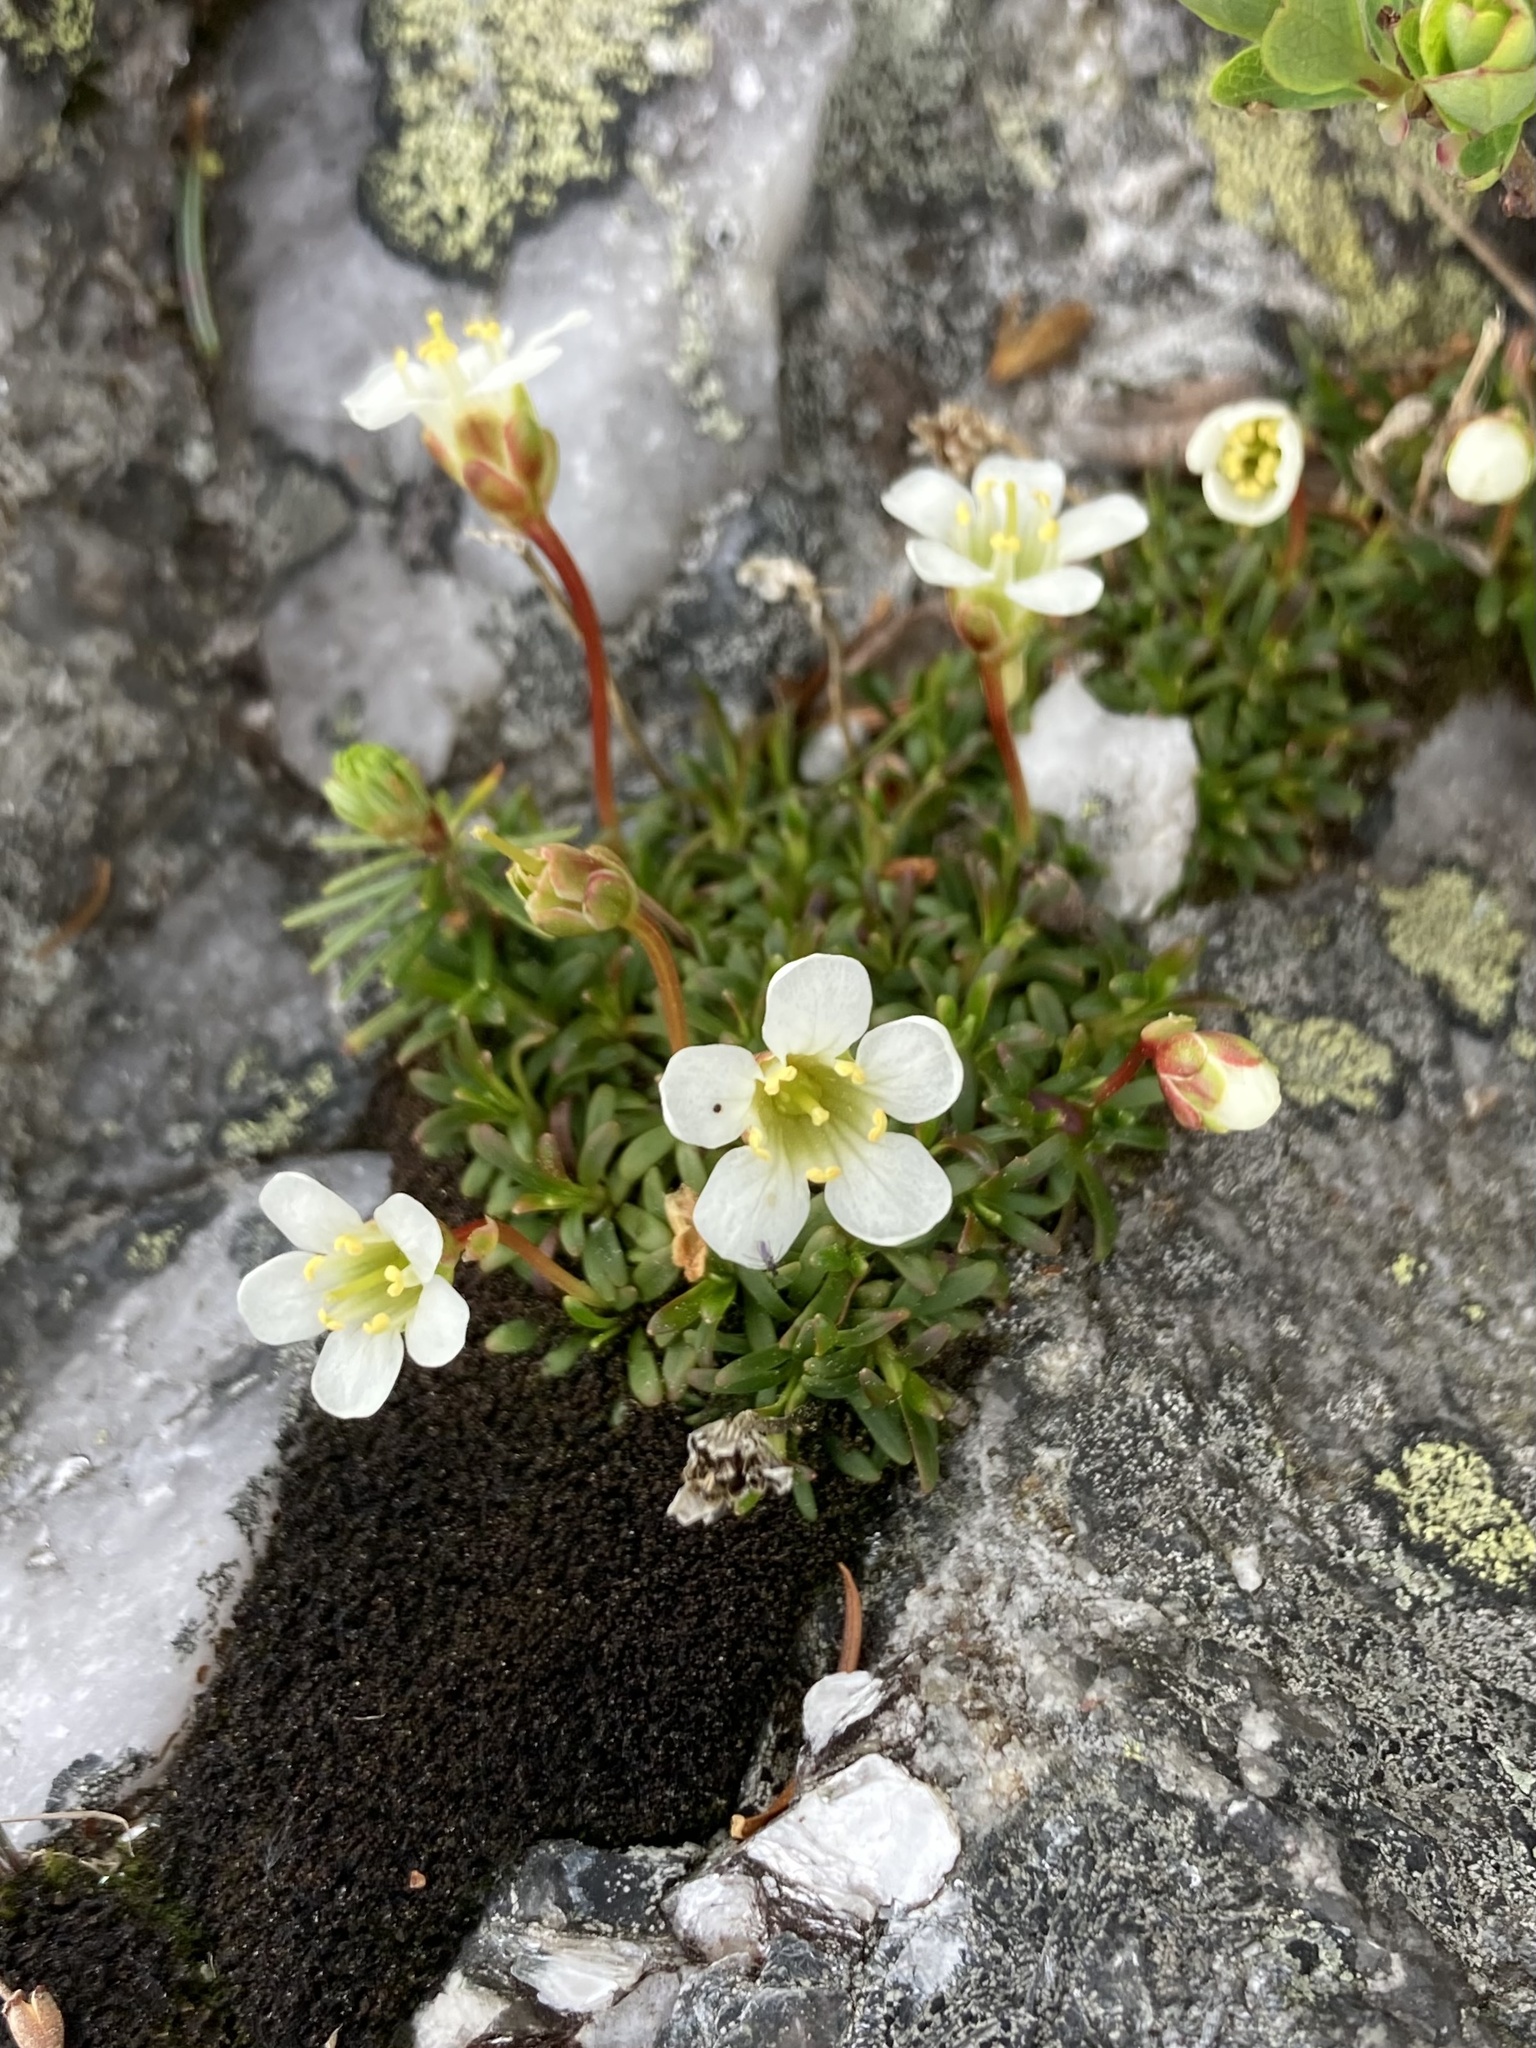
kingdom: Plantae
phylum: Tracheophyta
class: Magnoliopsida
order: Ericales
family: Diapensiaceae
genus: Diapensia
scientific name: Diapensia lapponica
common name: Diapensia
